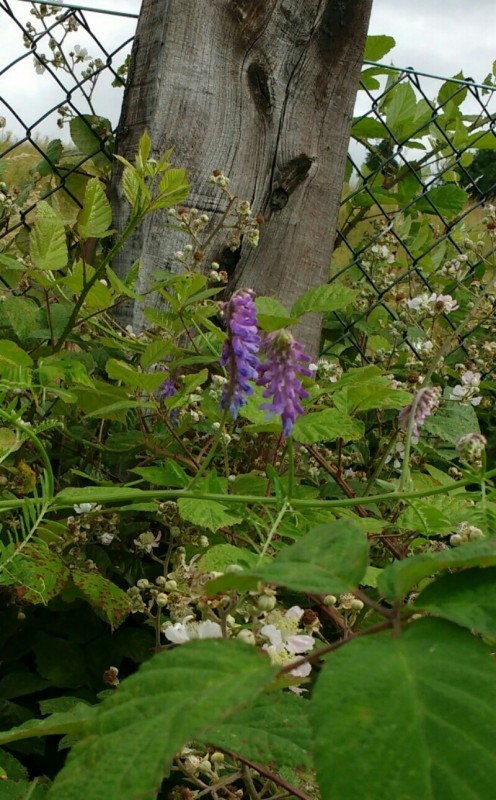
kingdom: Plantae
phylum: Tracheophyta
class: Magnoliopsida
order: Fabales
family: Fabaceae
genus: Vicia
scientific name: Vicia cracca
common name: Bird vetch
